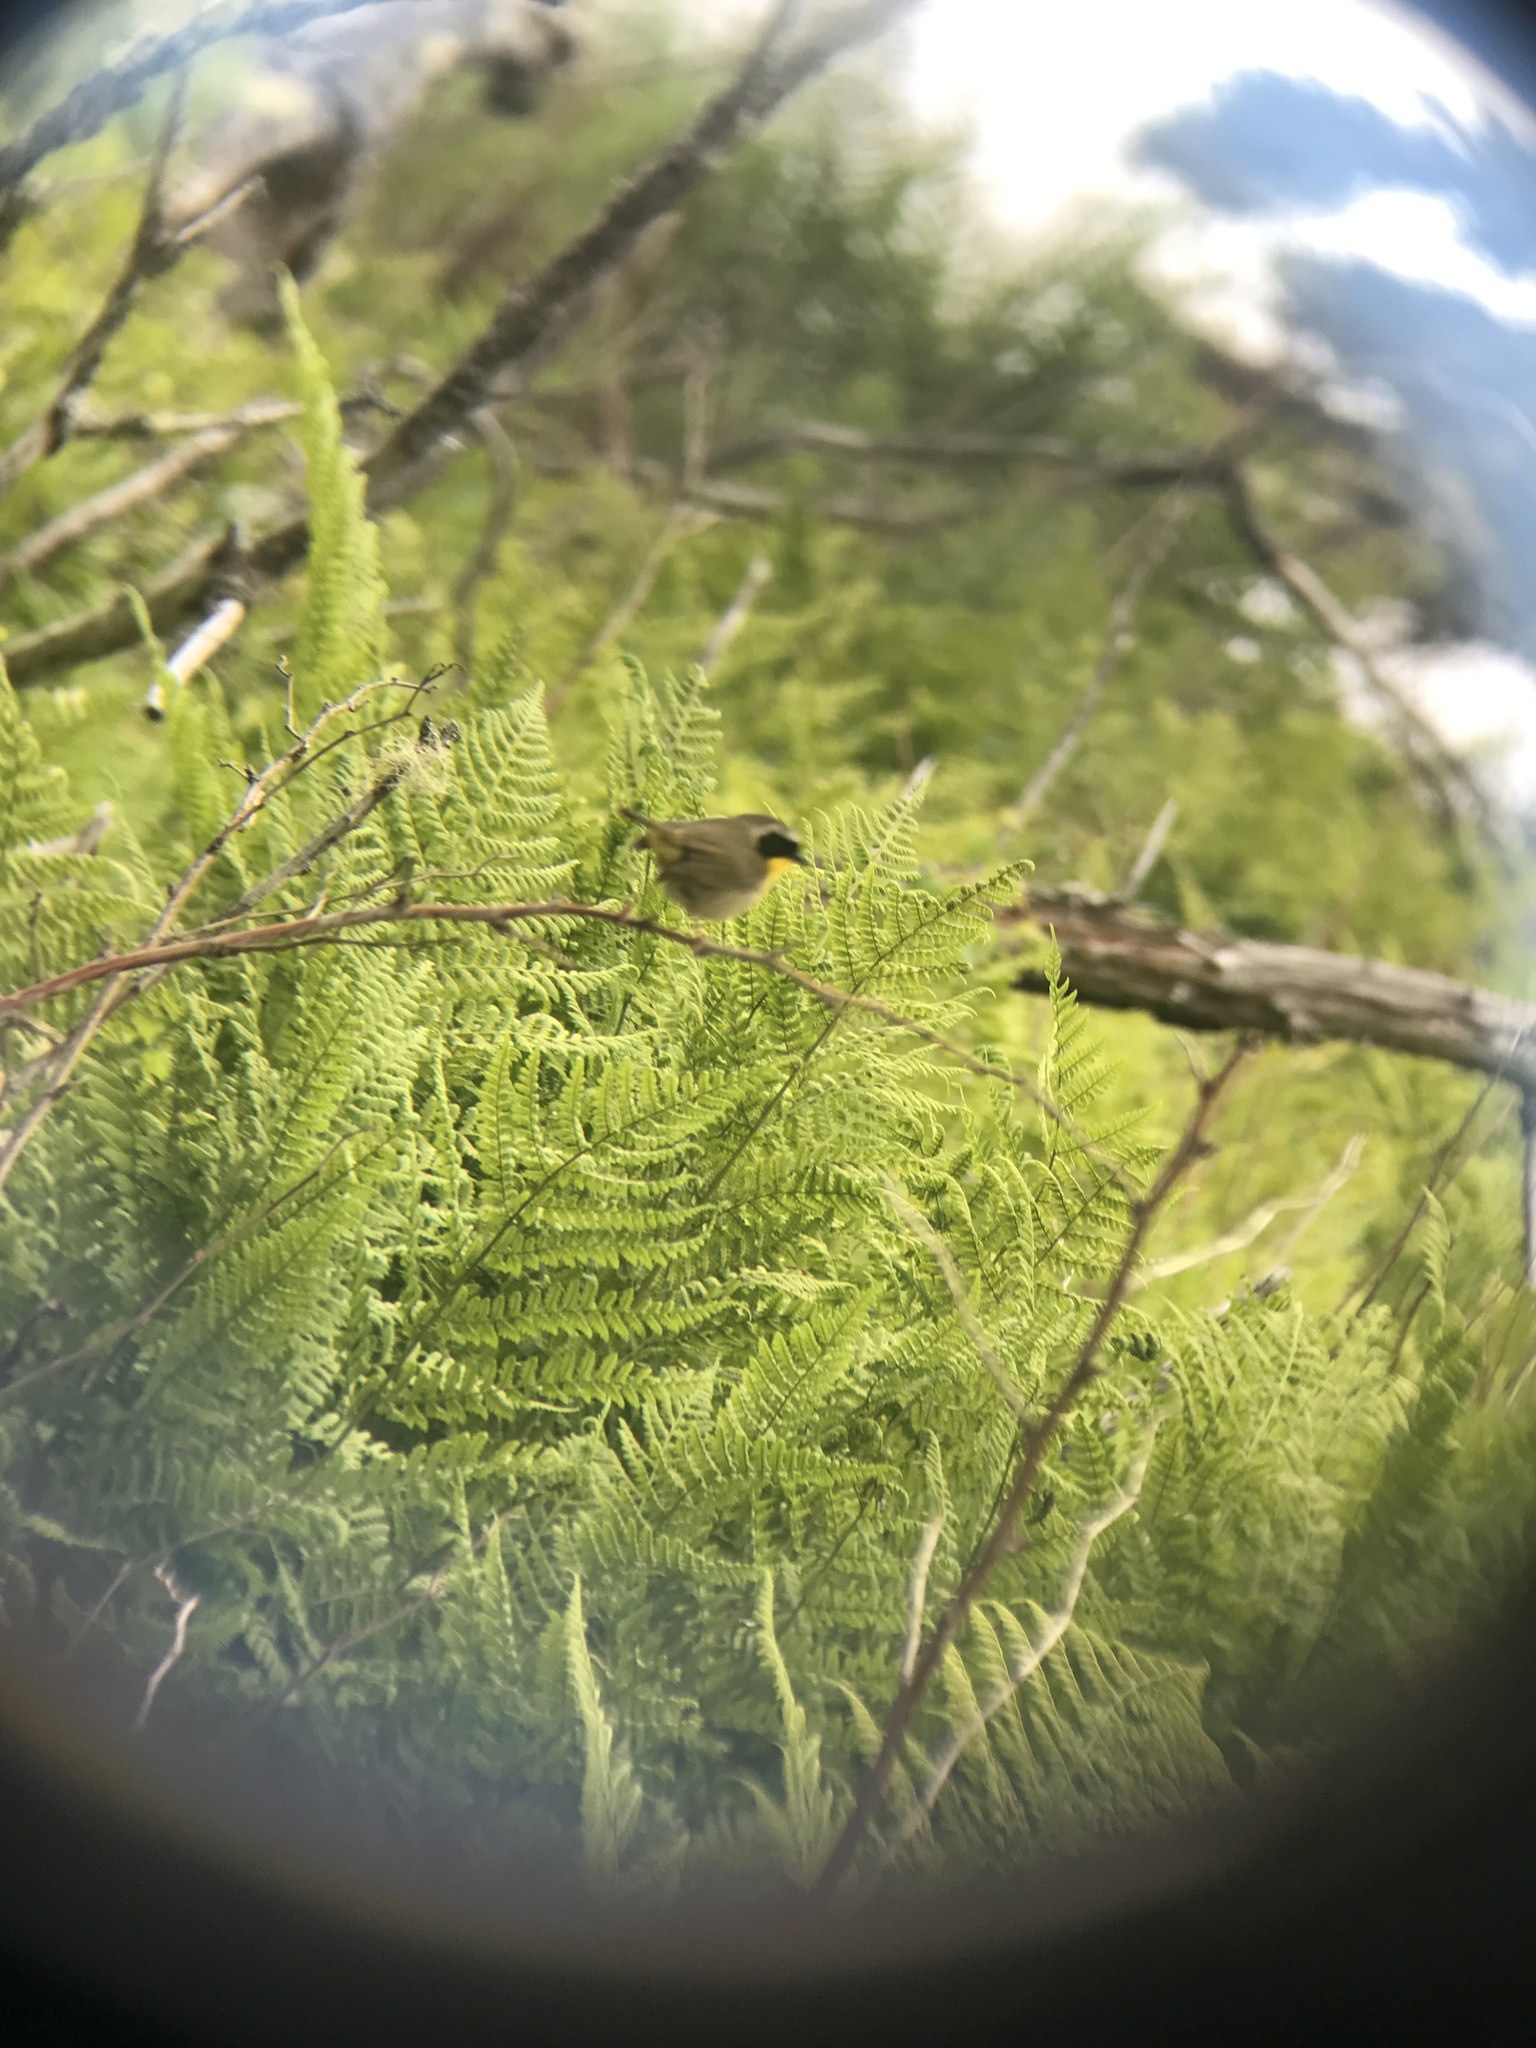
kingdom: Animalia
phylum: Chordata
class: Aves
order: Passeriformes
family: Parulidae
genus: Geothlypis
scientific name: Geothlypis trichas
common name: Common yellowthroat
